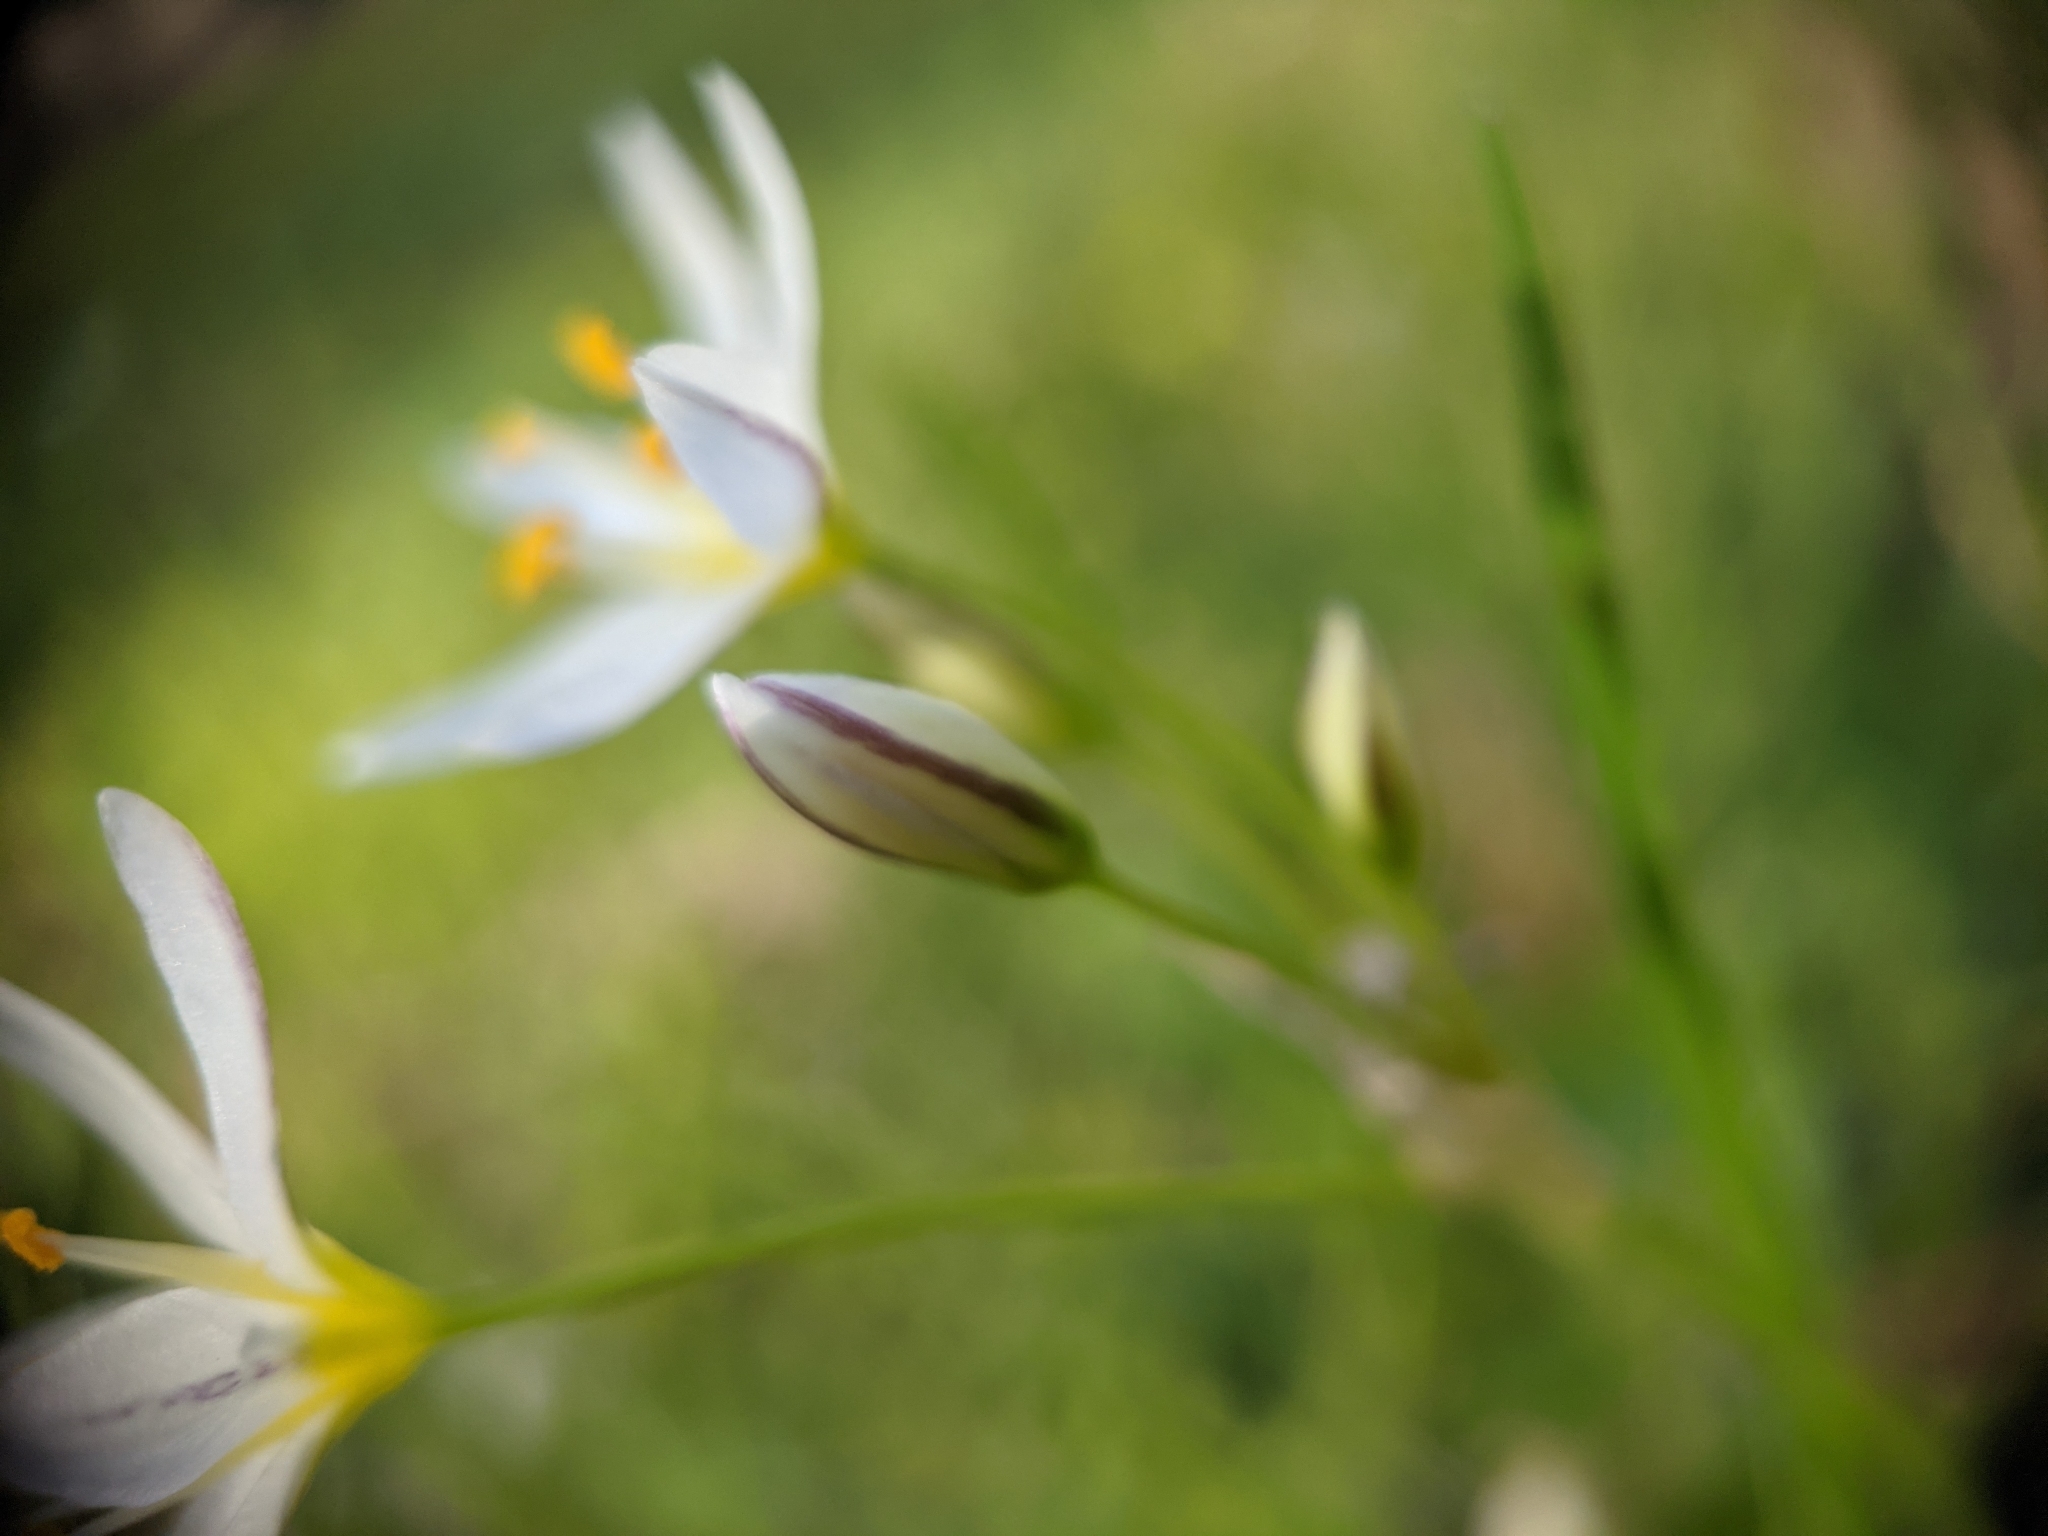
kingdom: Plantae
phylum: Tracheophyta
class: Liliopsida
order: Asparagales
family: Amaryllidaceae
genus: Nothoscordum
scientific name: Nothoscordum bivalve
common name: Crow-poison
